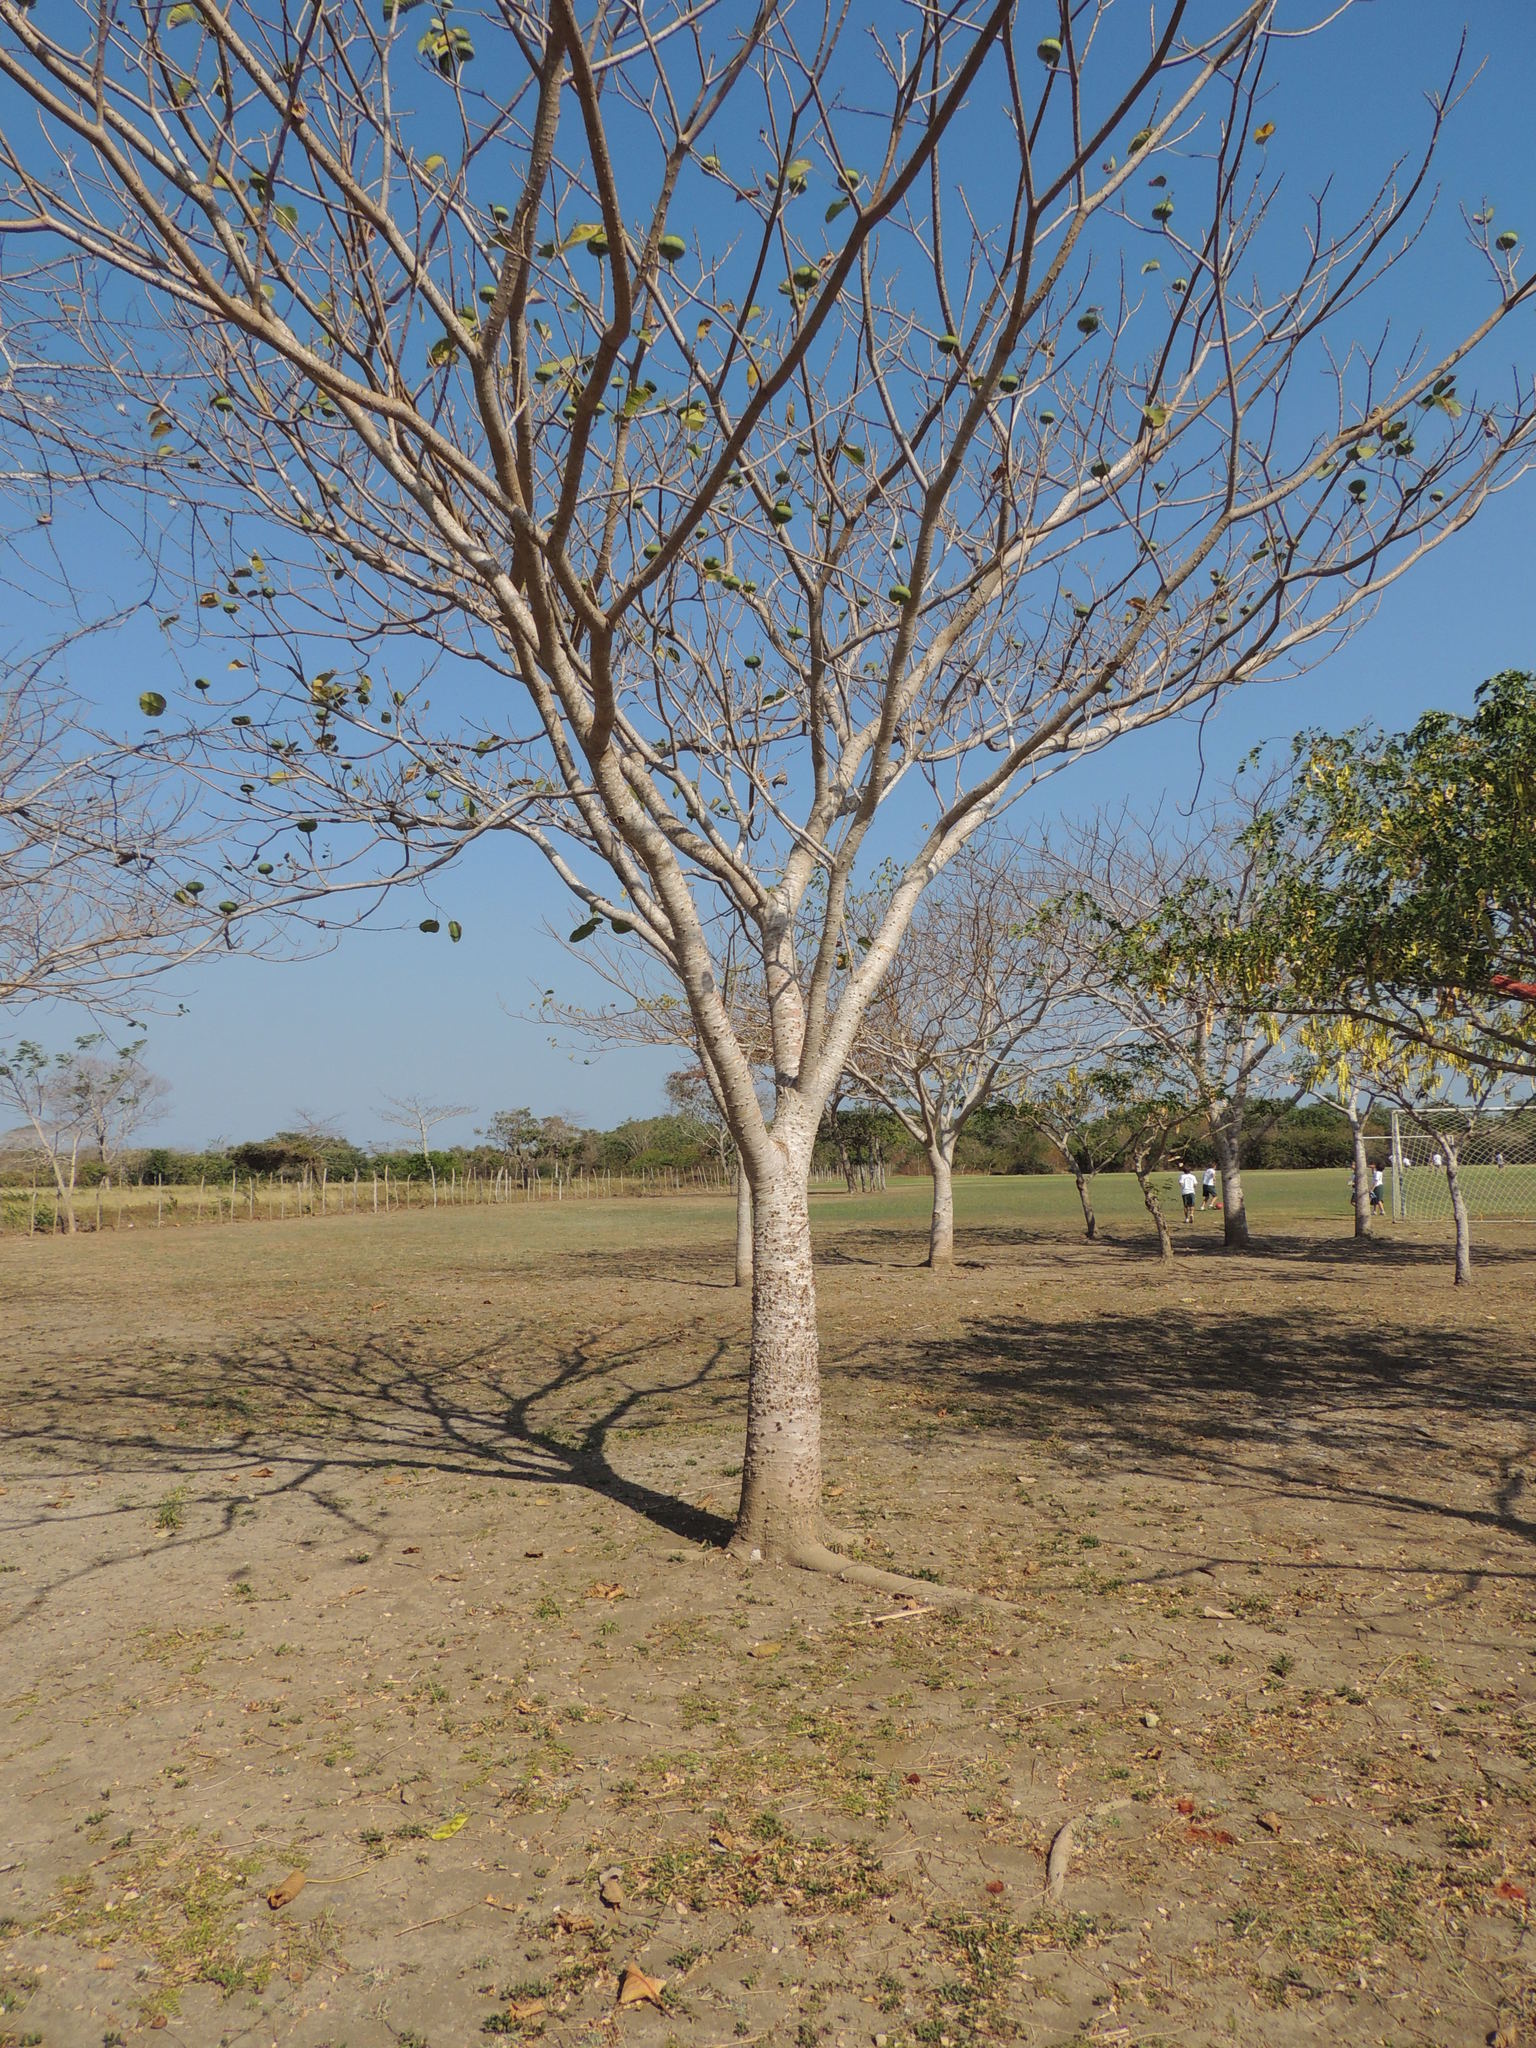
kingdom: Plantae
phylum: Tracheophyta
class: Magnoliopsida
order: Malpighiales
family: Euphorbiaceae
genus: Hura
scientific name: Hura crepitans
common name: Sandboxtree
